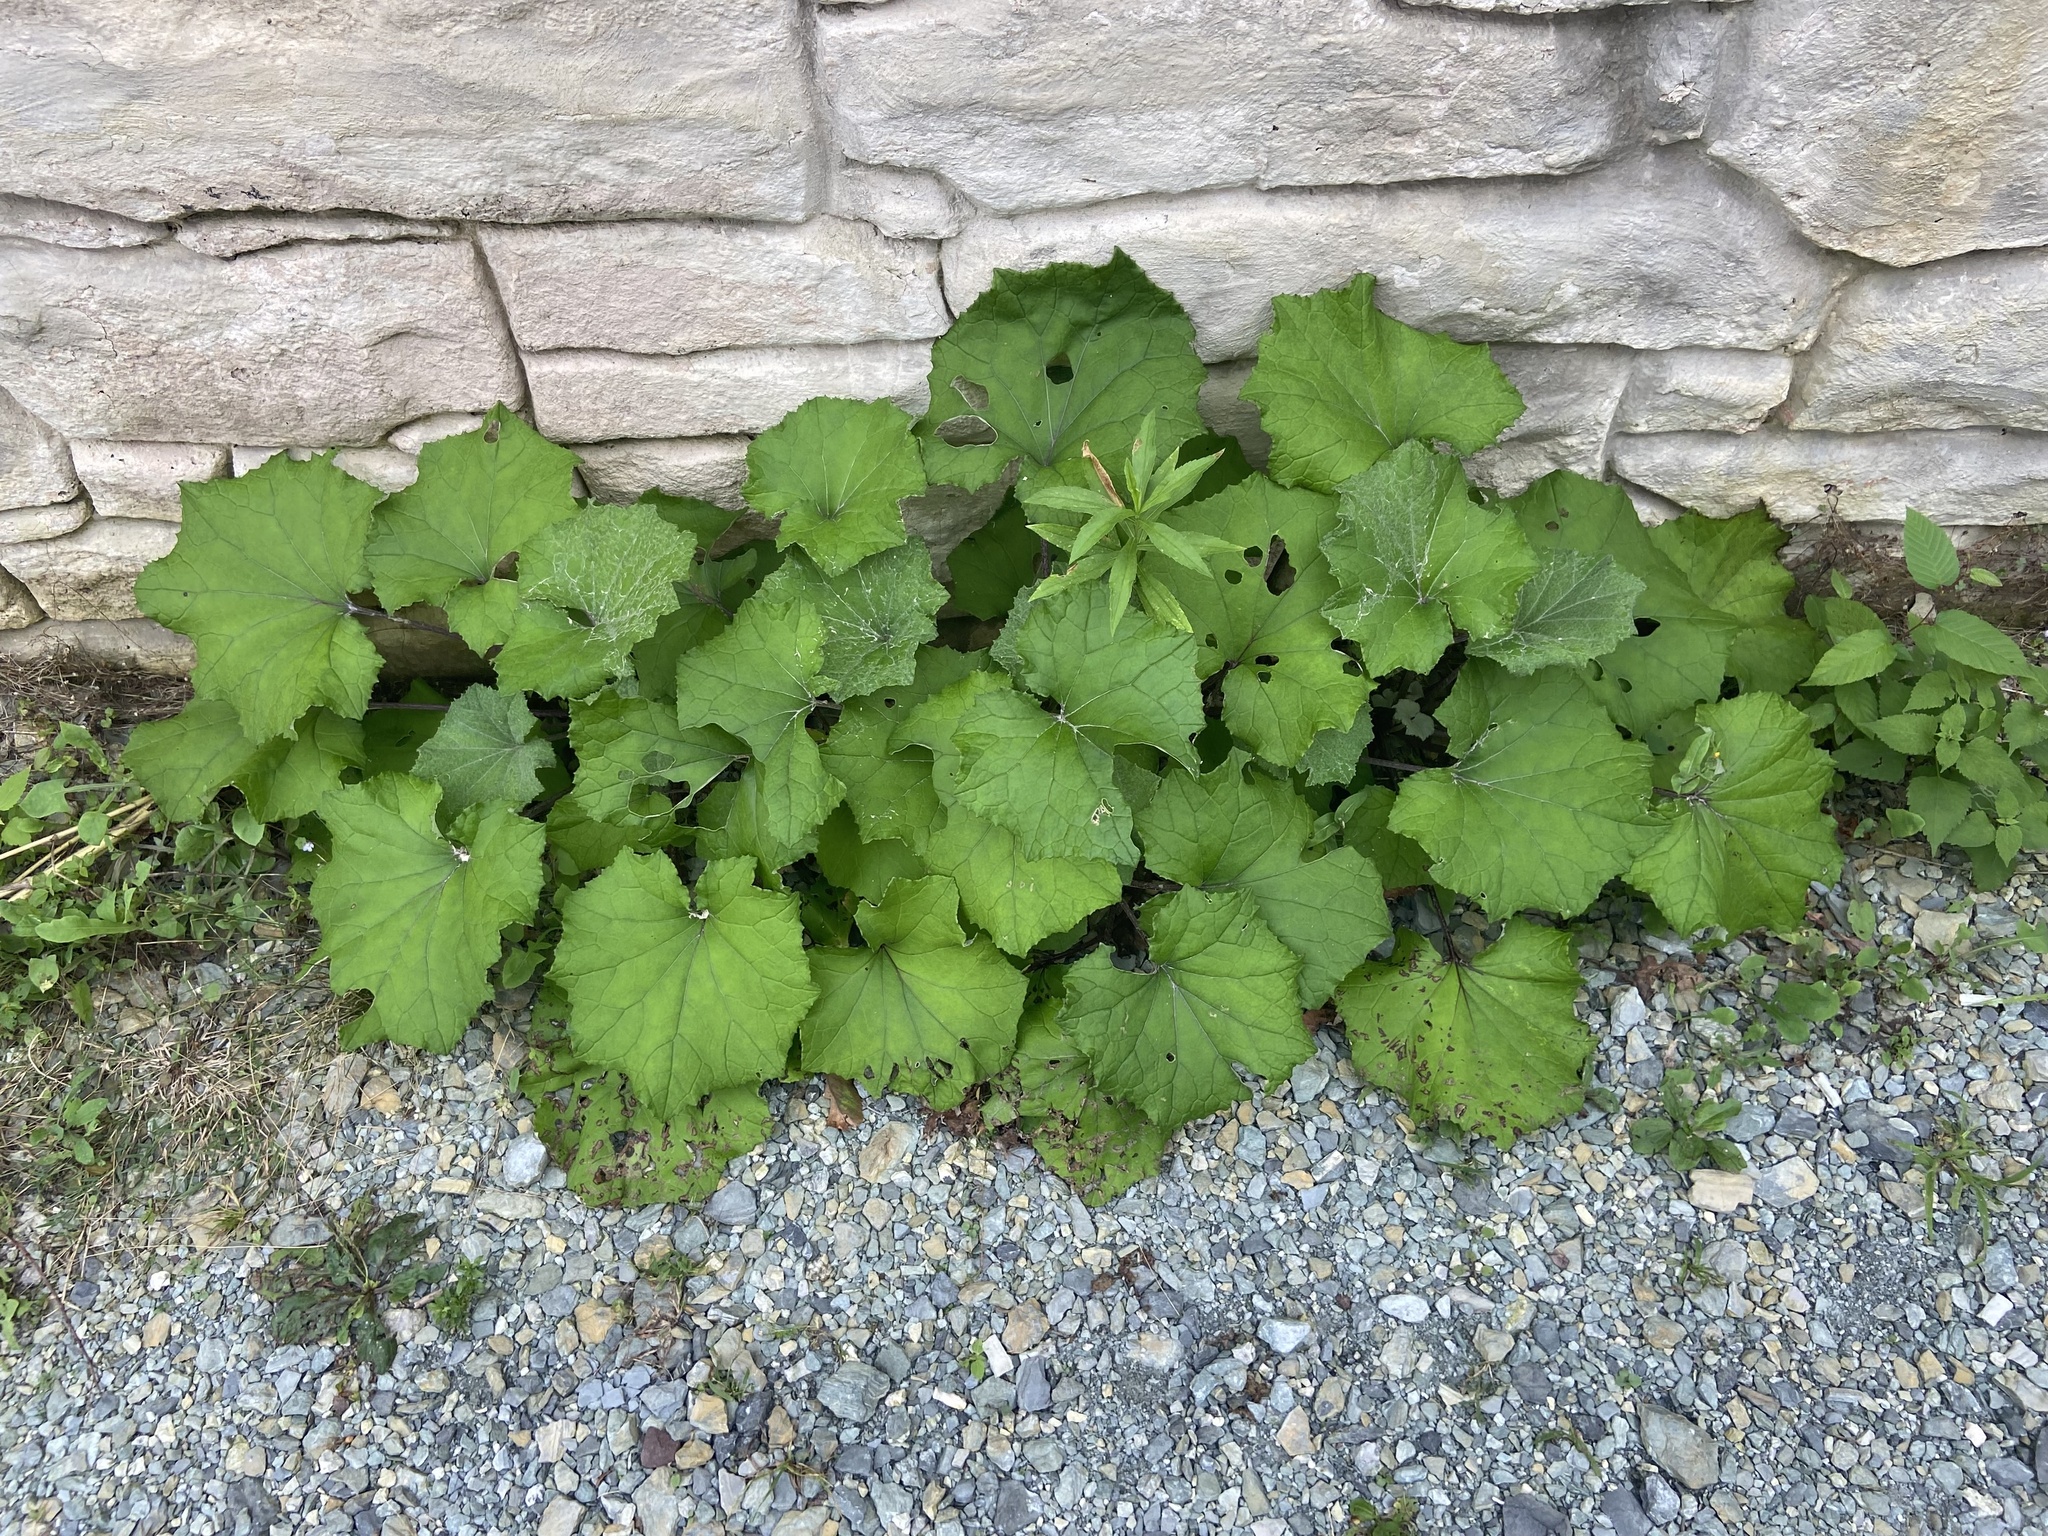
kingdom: Plantae
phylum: Tracheophyta
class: Magnoliopsida
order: Asterales
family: Asteraceae
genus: Tussilago
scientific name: Tussilago farfara
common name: Coltsfoot
